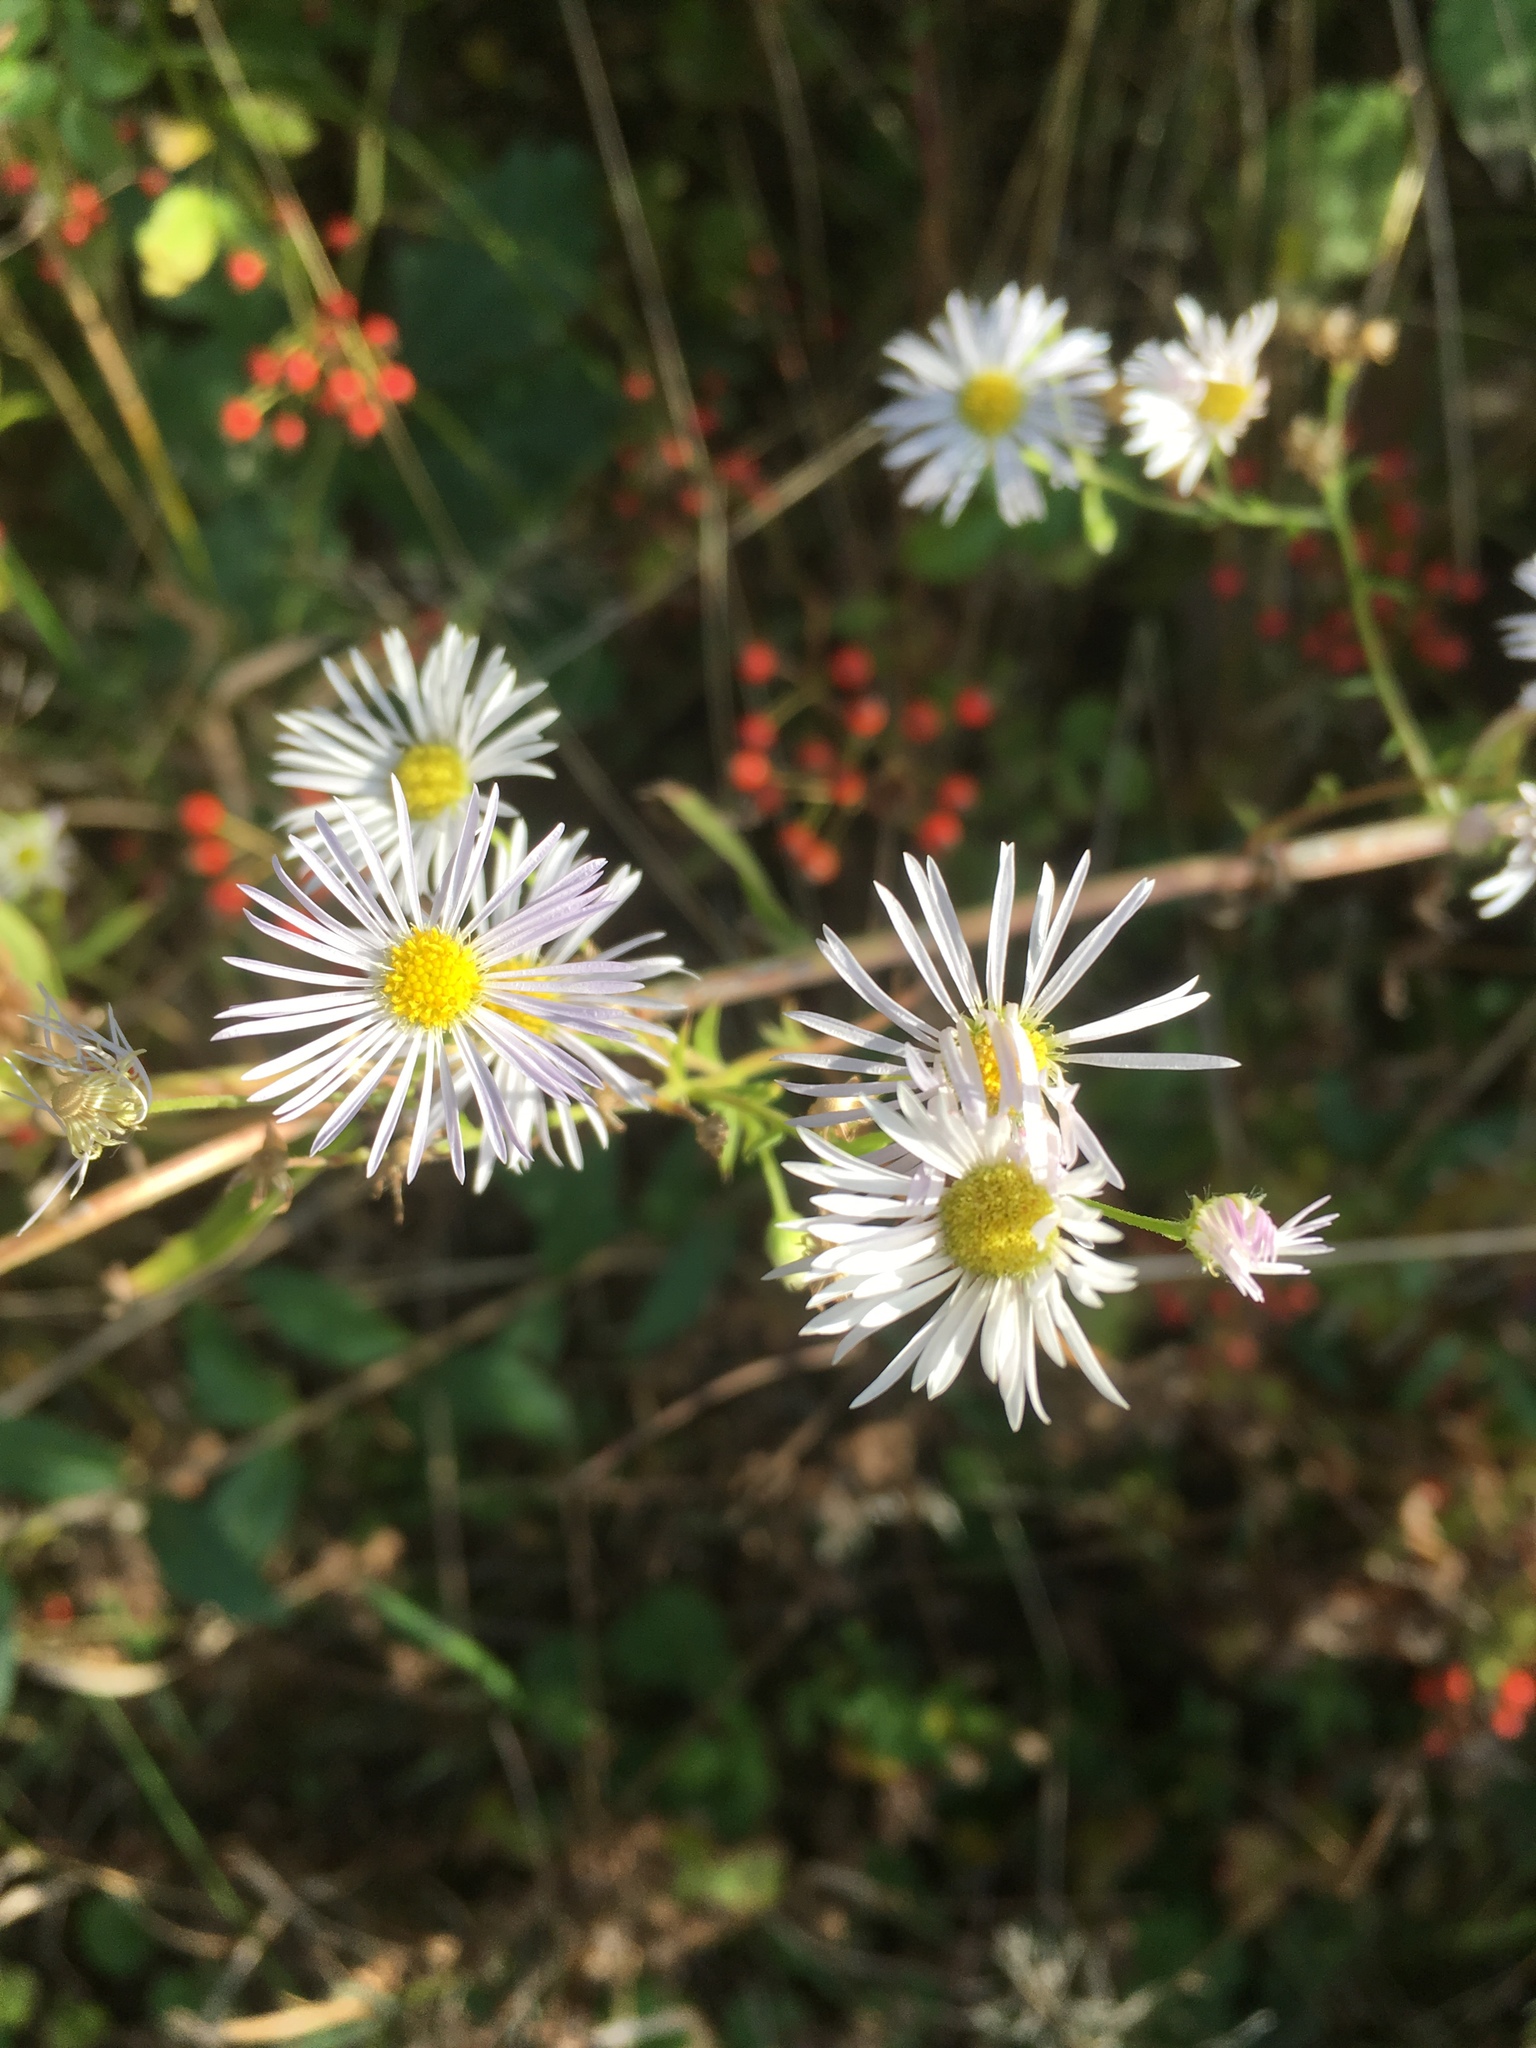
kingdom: Plantae
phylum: Tracheophyta
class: Magnoliopsida
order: Asterales
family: Asteraceae
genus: Erigeron
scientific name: Erigeron annuus
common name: Tall fleabane
